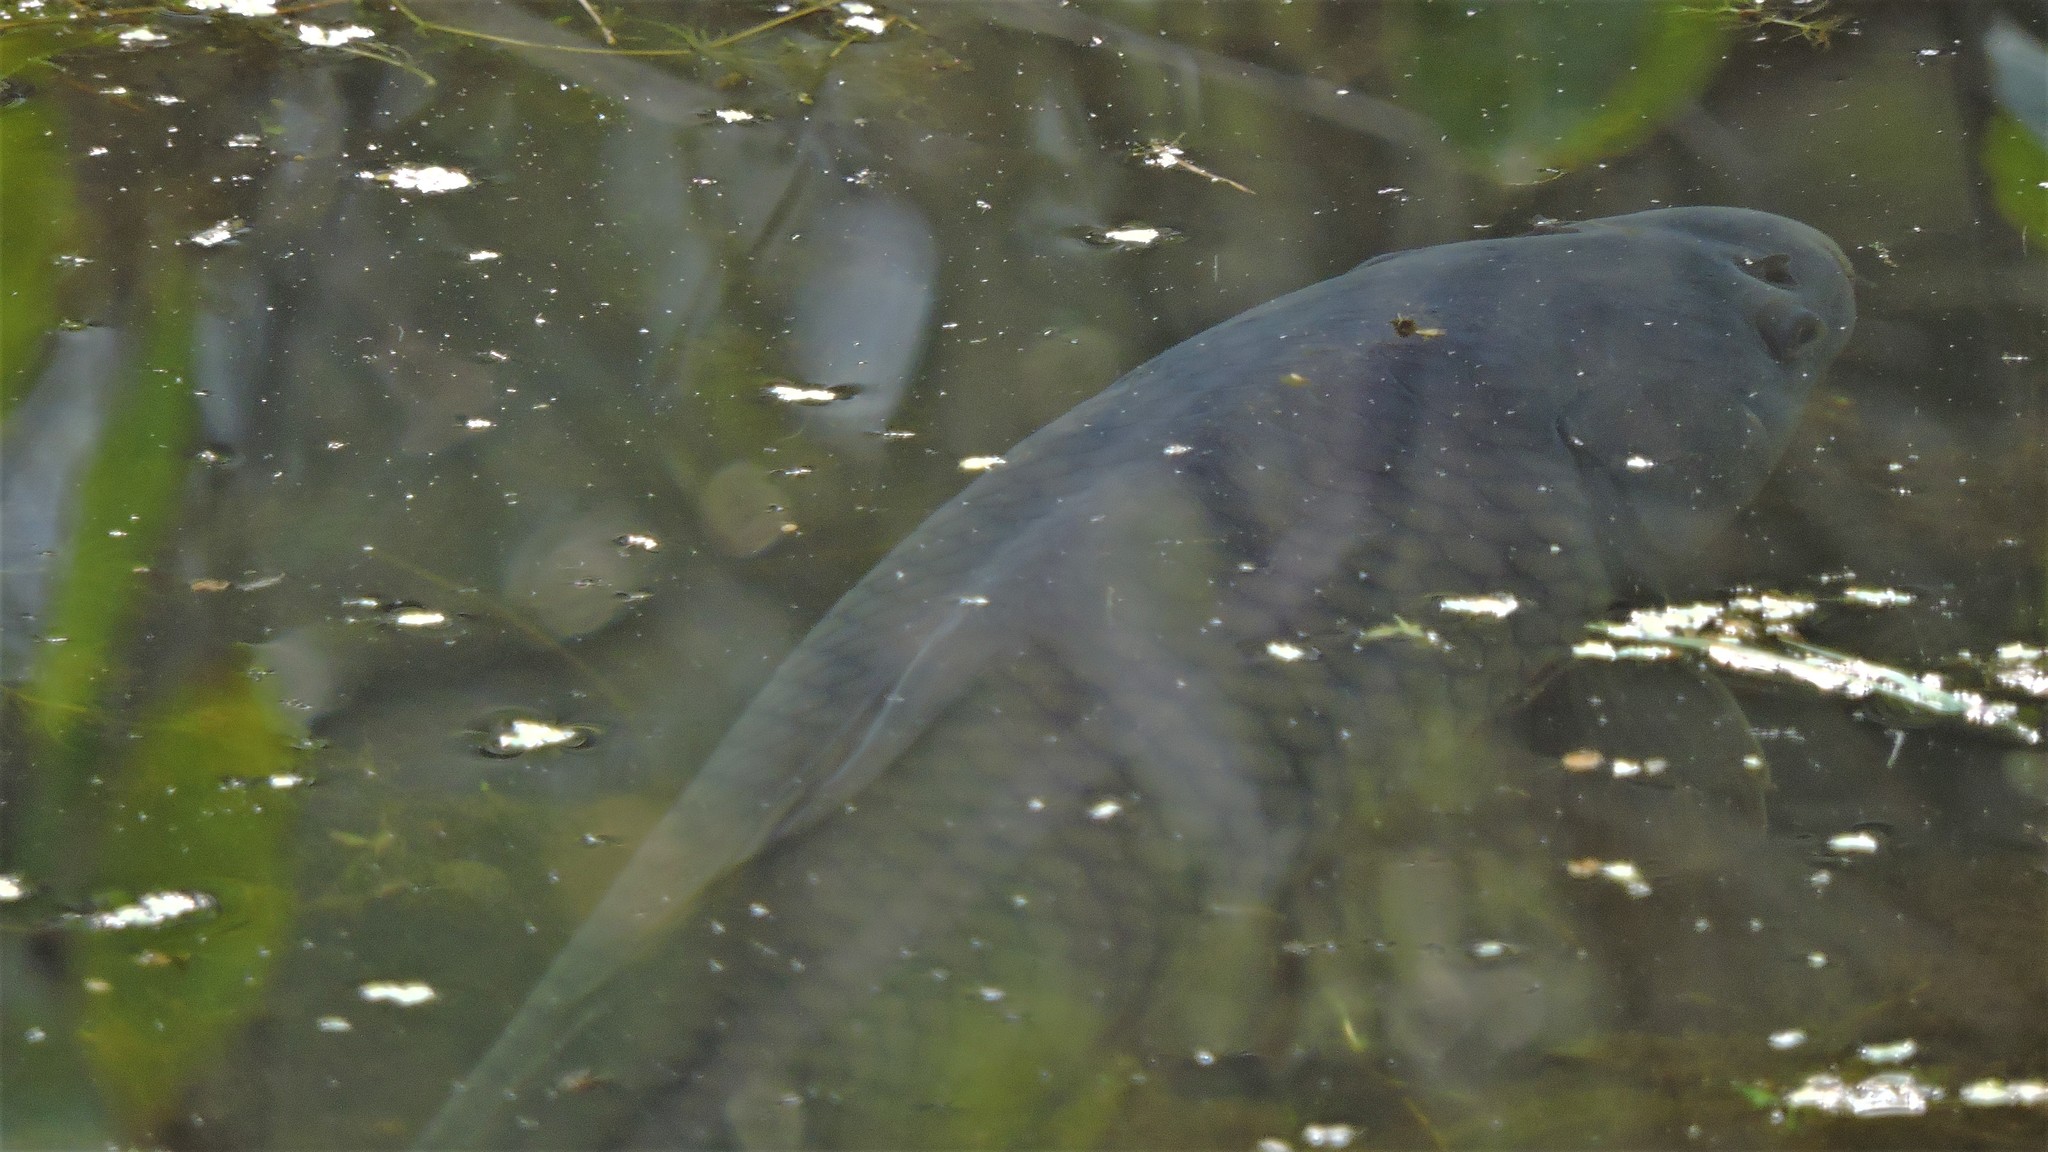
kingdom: Animalia
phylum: Chordata
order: Cypriniformes
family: Cyprinidae
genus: Cyprinus
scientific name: Cyprinus carpio
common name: Common carp
